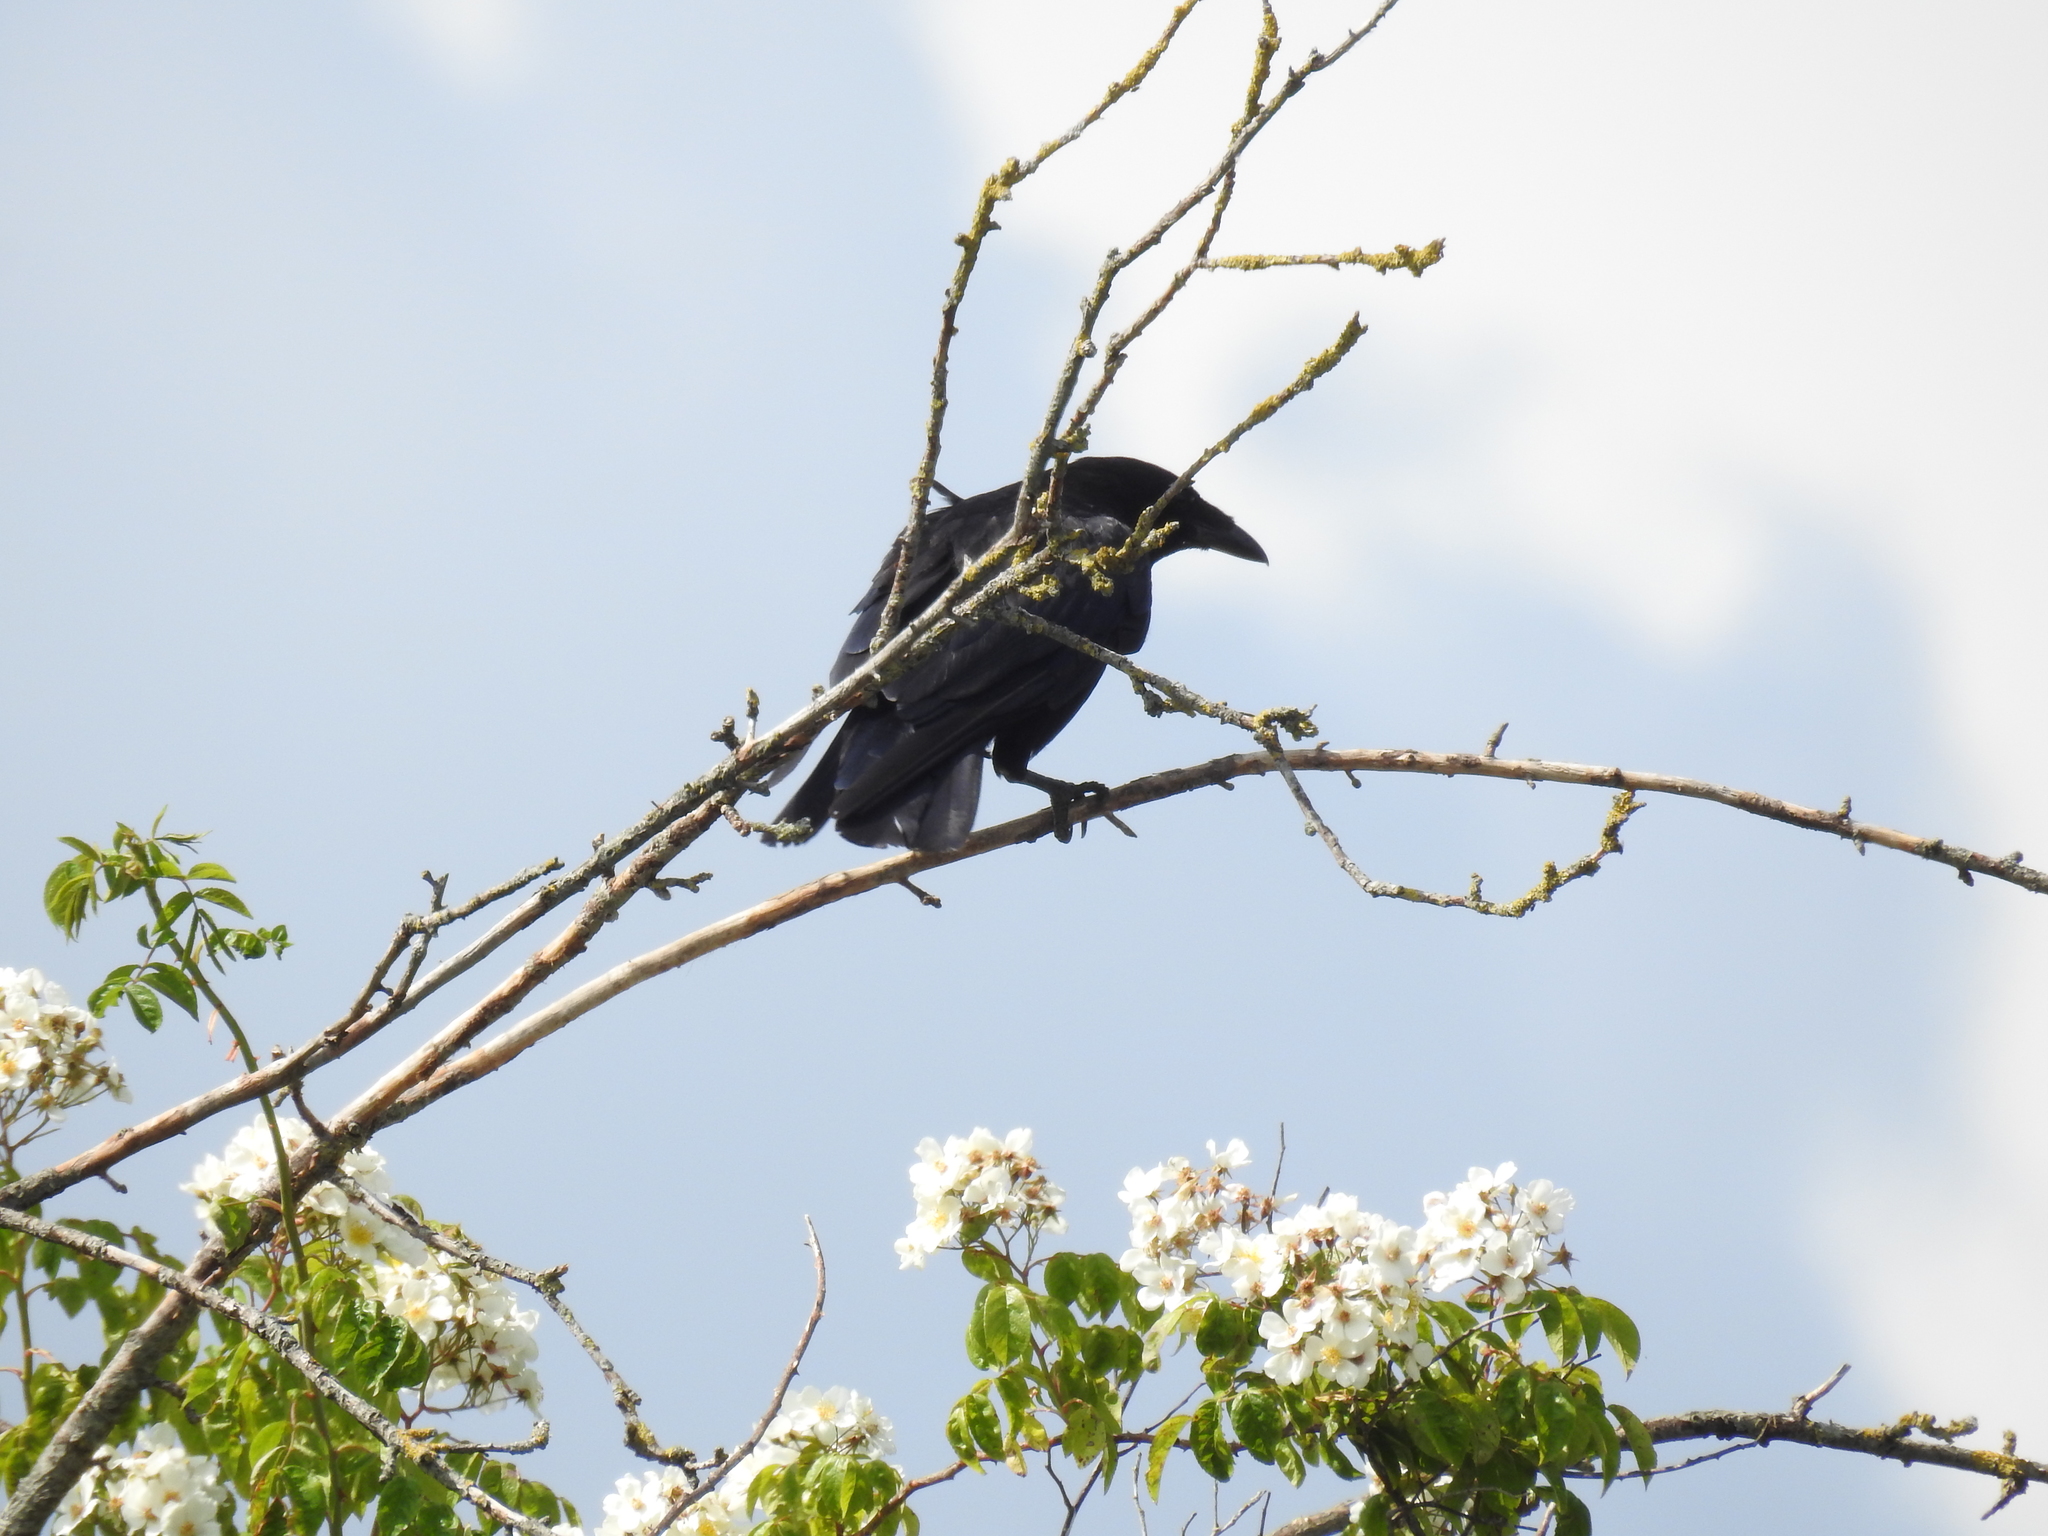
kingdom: Animalia
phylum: Chordata
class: Aves
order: Passeriformes
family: Corvidae
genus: Corvus
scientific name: Corvus corone
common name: Carrion crow
